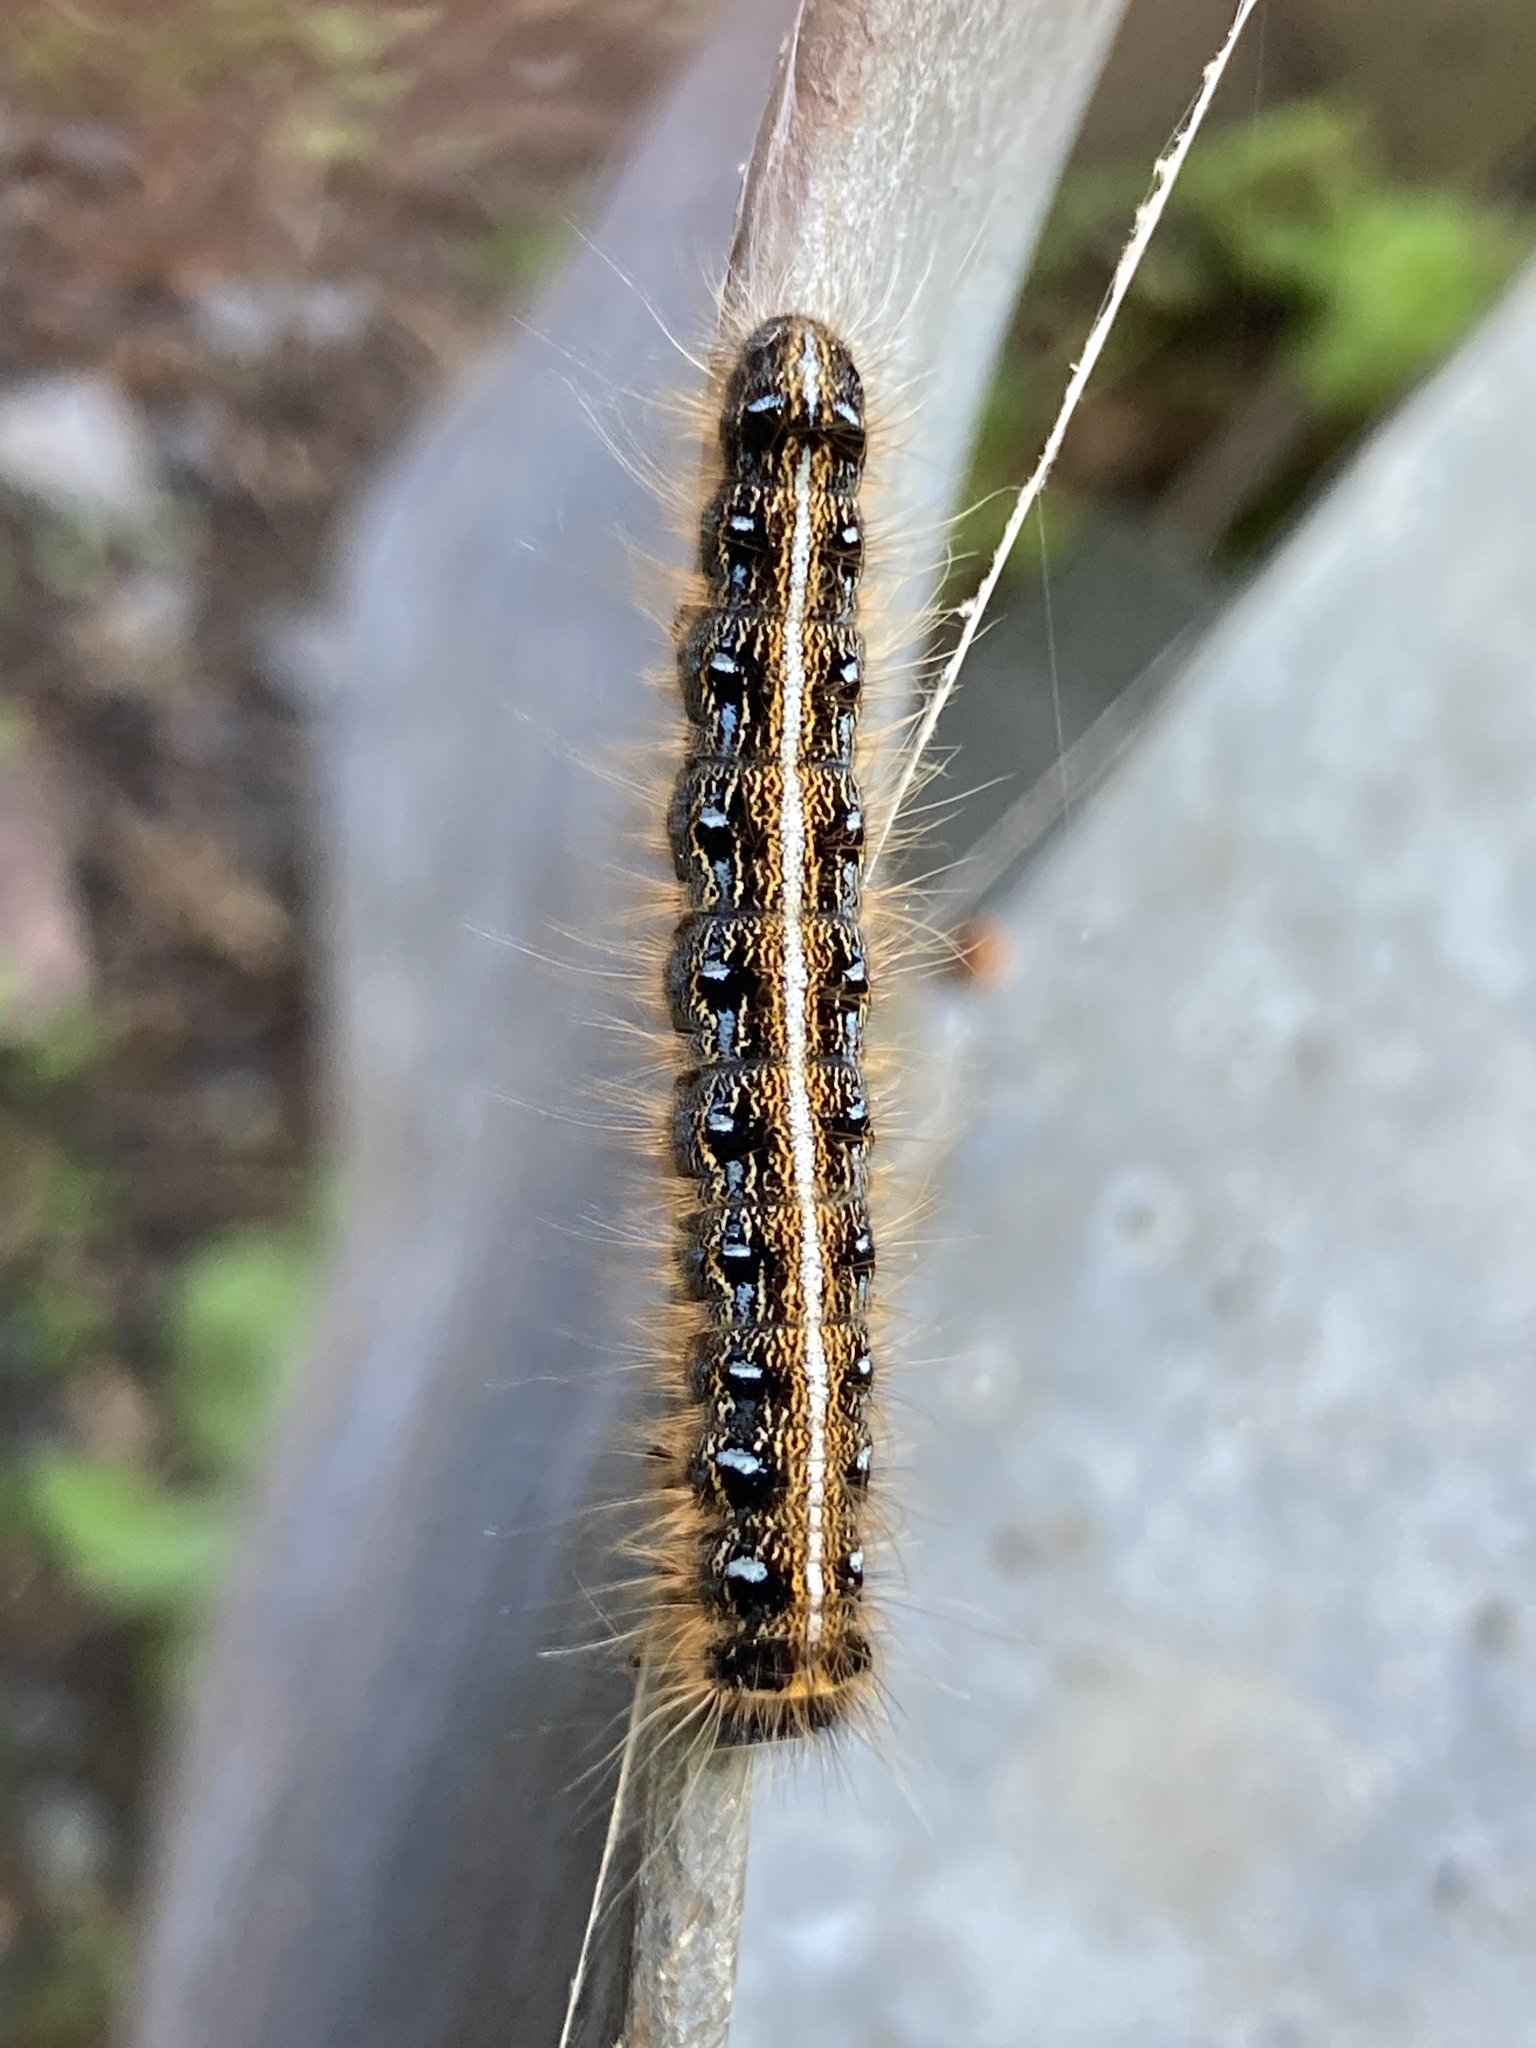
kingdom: Animalia
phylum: Arthropoda
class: Insecta
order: Lepidoptera
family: Lasiocampidae
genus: Malacosoma
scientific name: Malacosoma americana
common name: Eastern tent caterpillar moth
